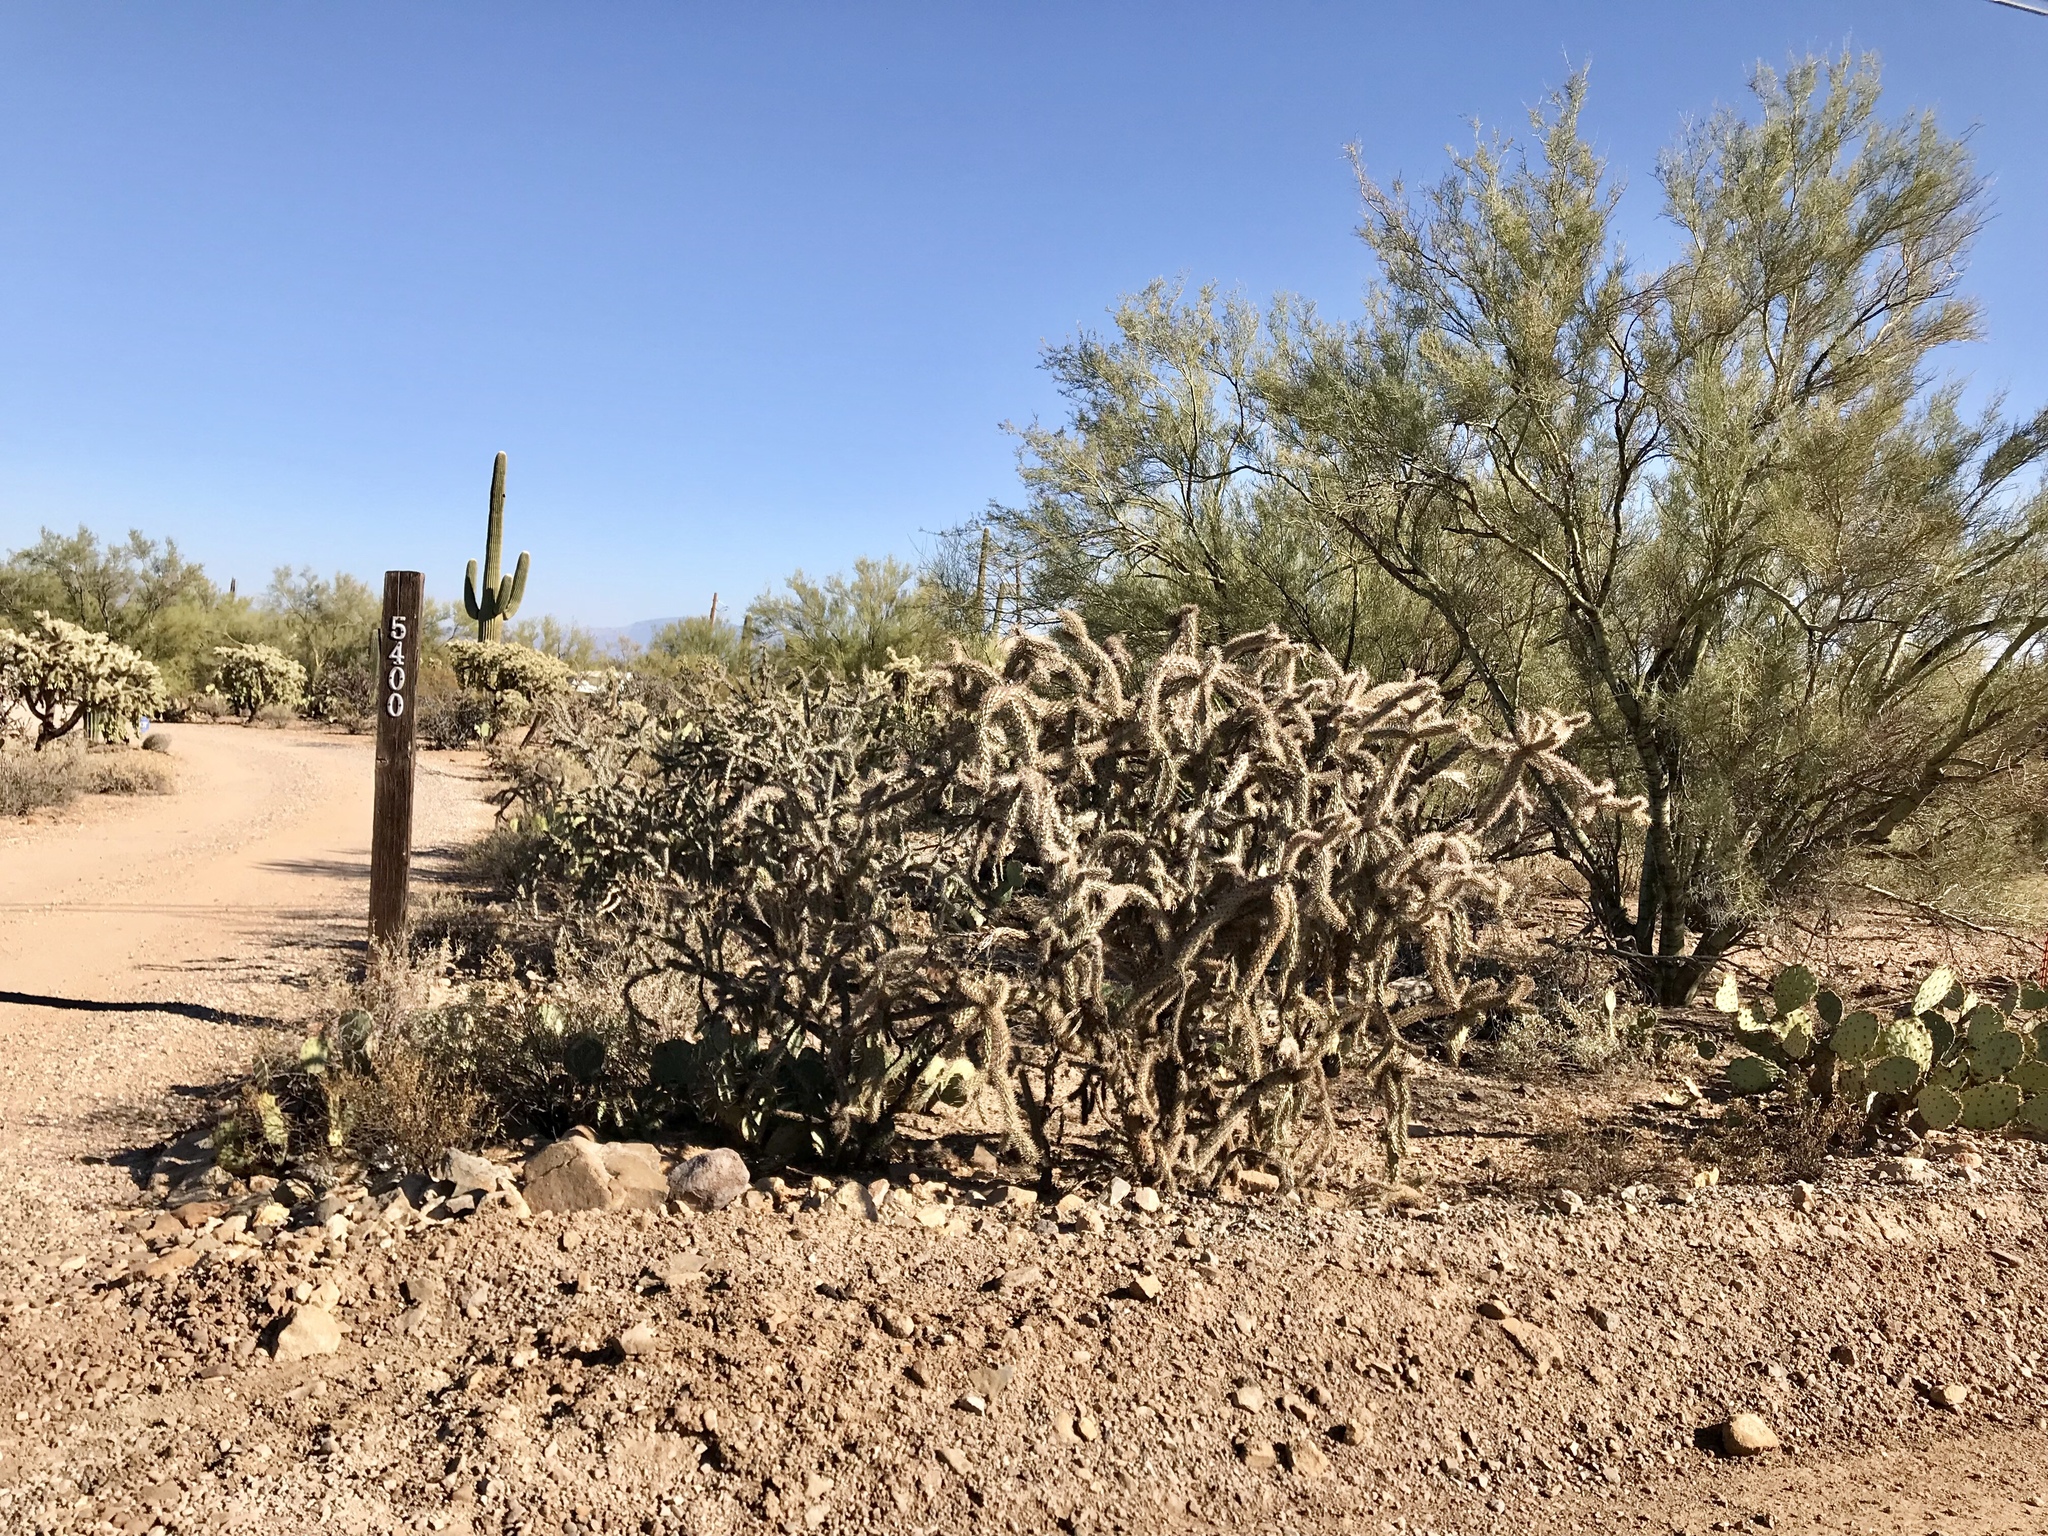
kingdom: Plantae
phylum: Tracheophyta
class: Magnoliopsida
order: Caryophyllales
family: Cactaceae
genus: Cylindropuntia
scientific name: Cylindropuntia imbricata
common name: Candelabrum cactus
